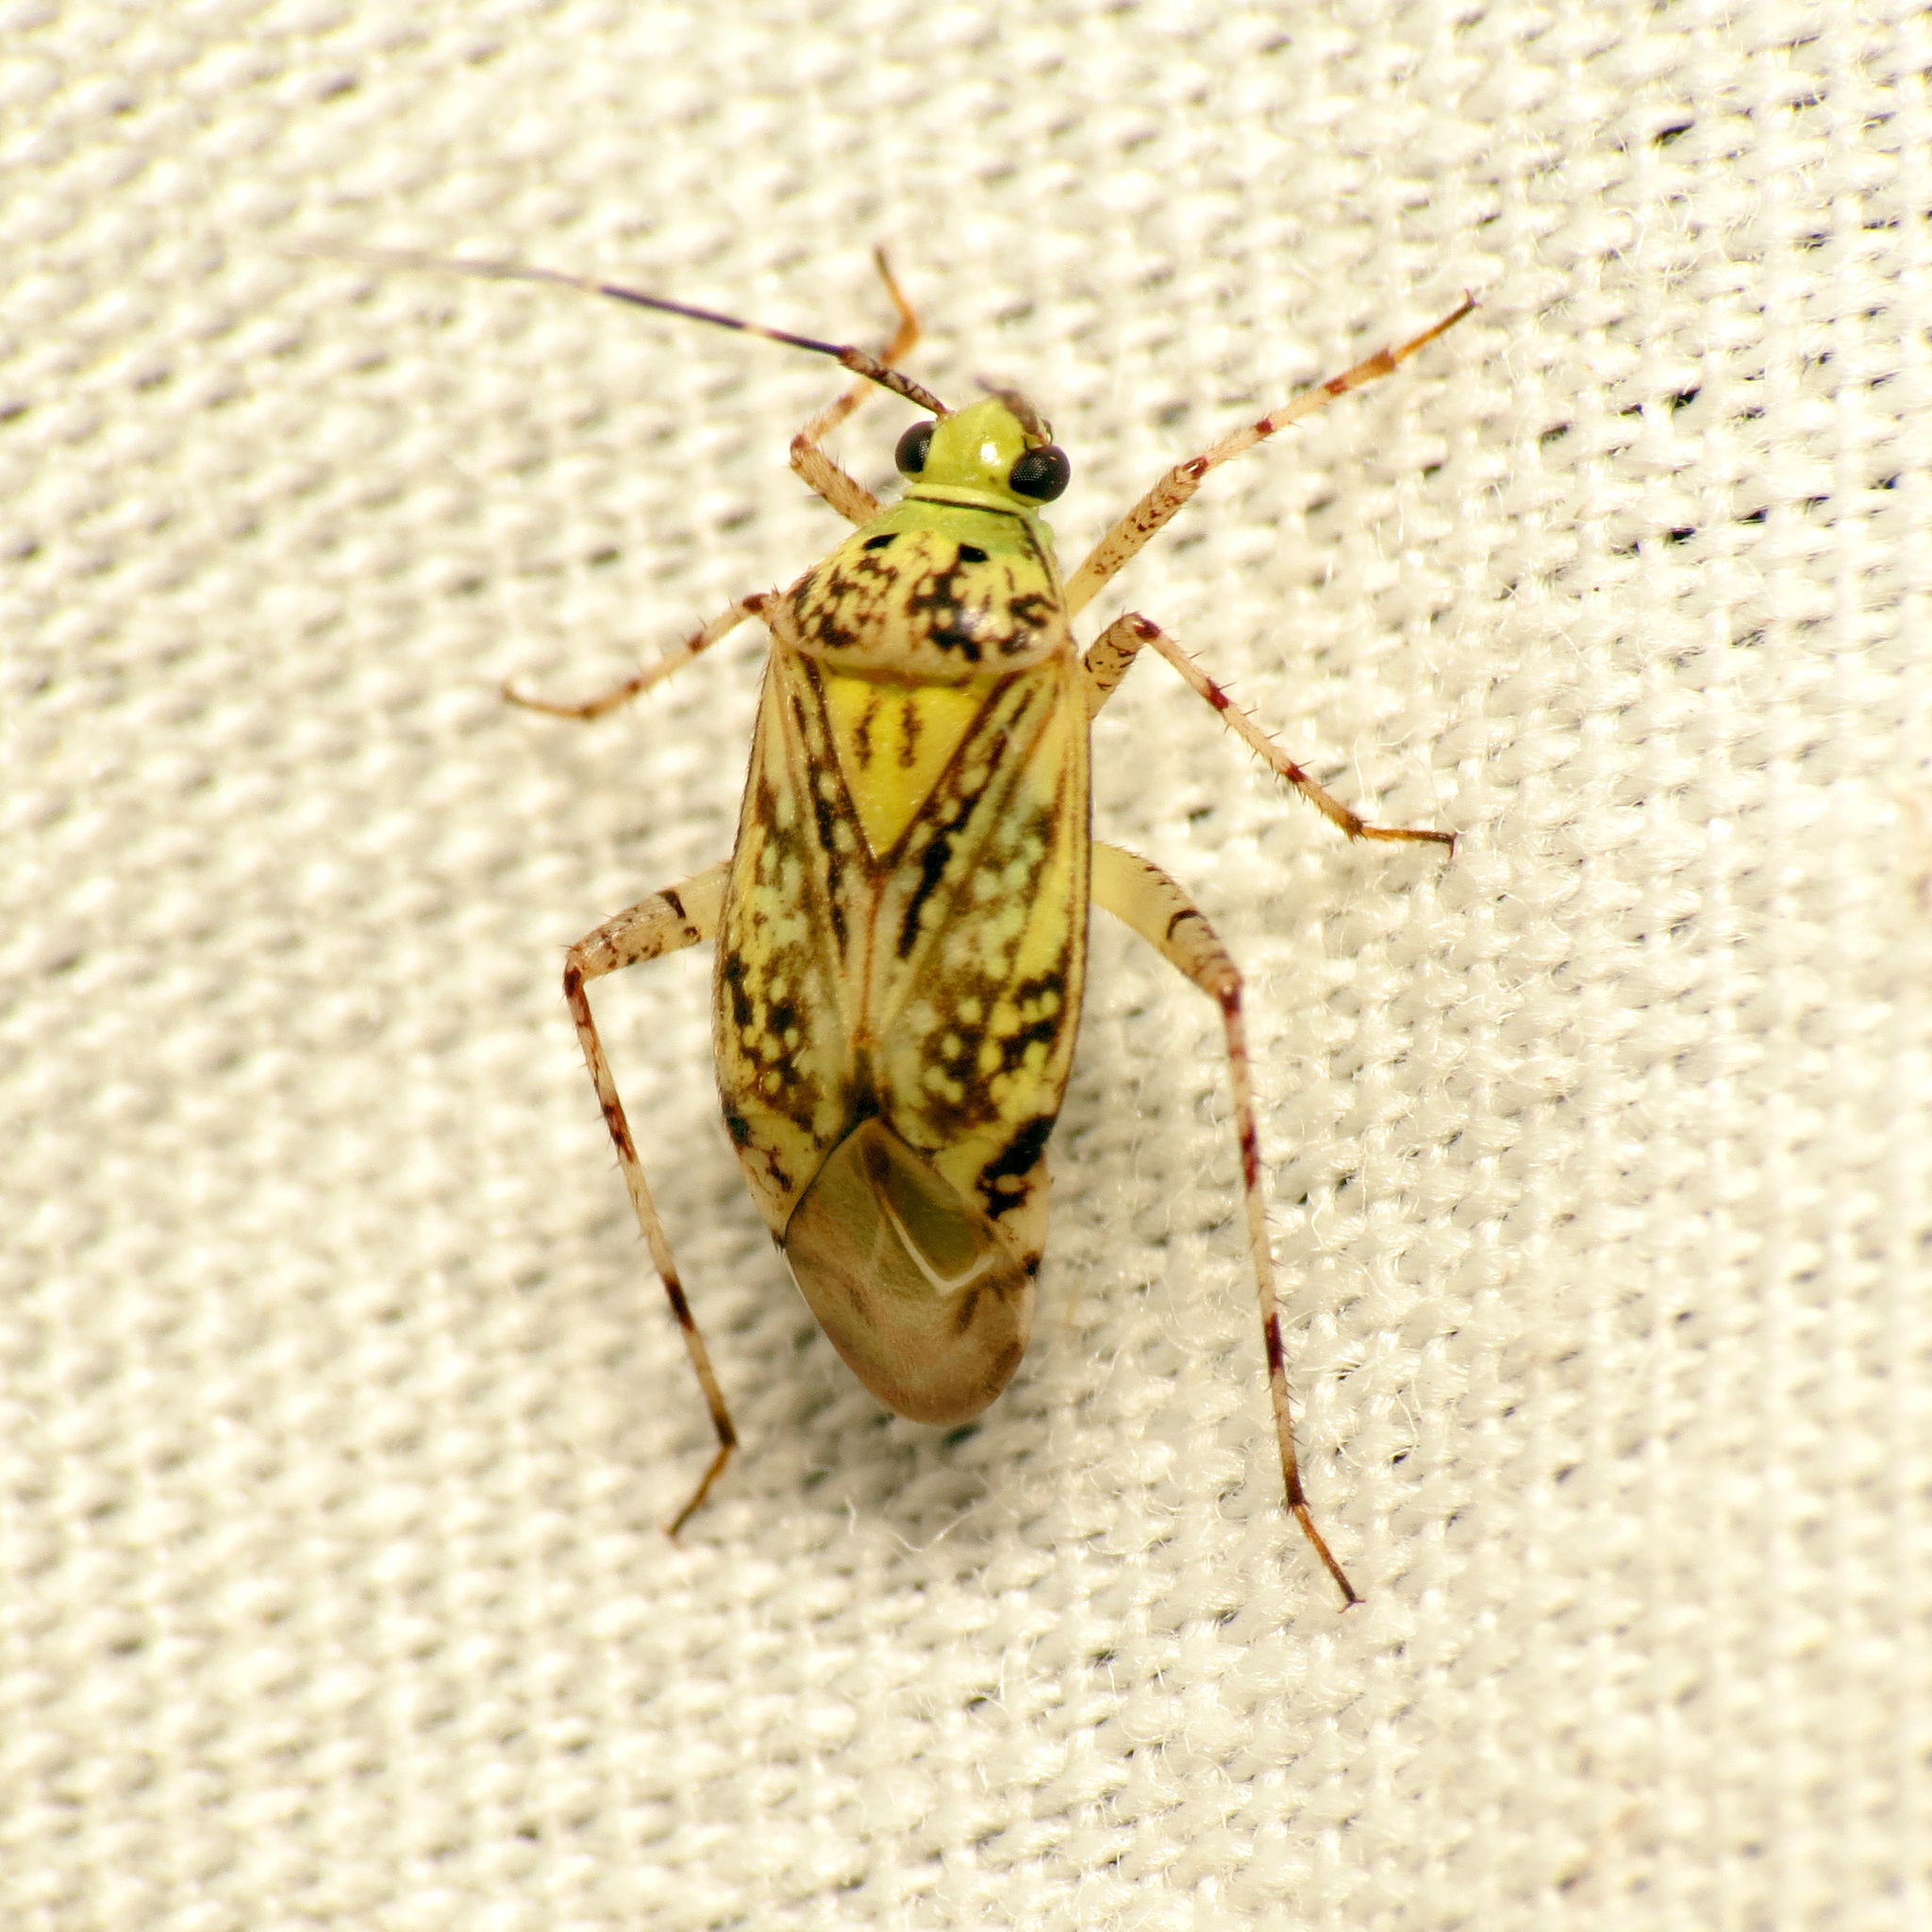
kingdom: Animalia
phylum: Arthropoda
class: Insecta
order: Hemiptera
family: Miridae
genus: Taedia
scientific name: Taedia marmorata
